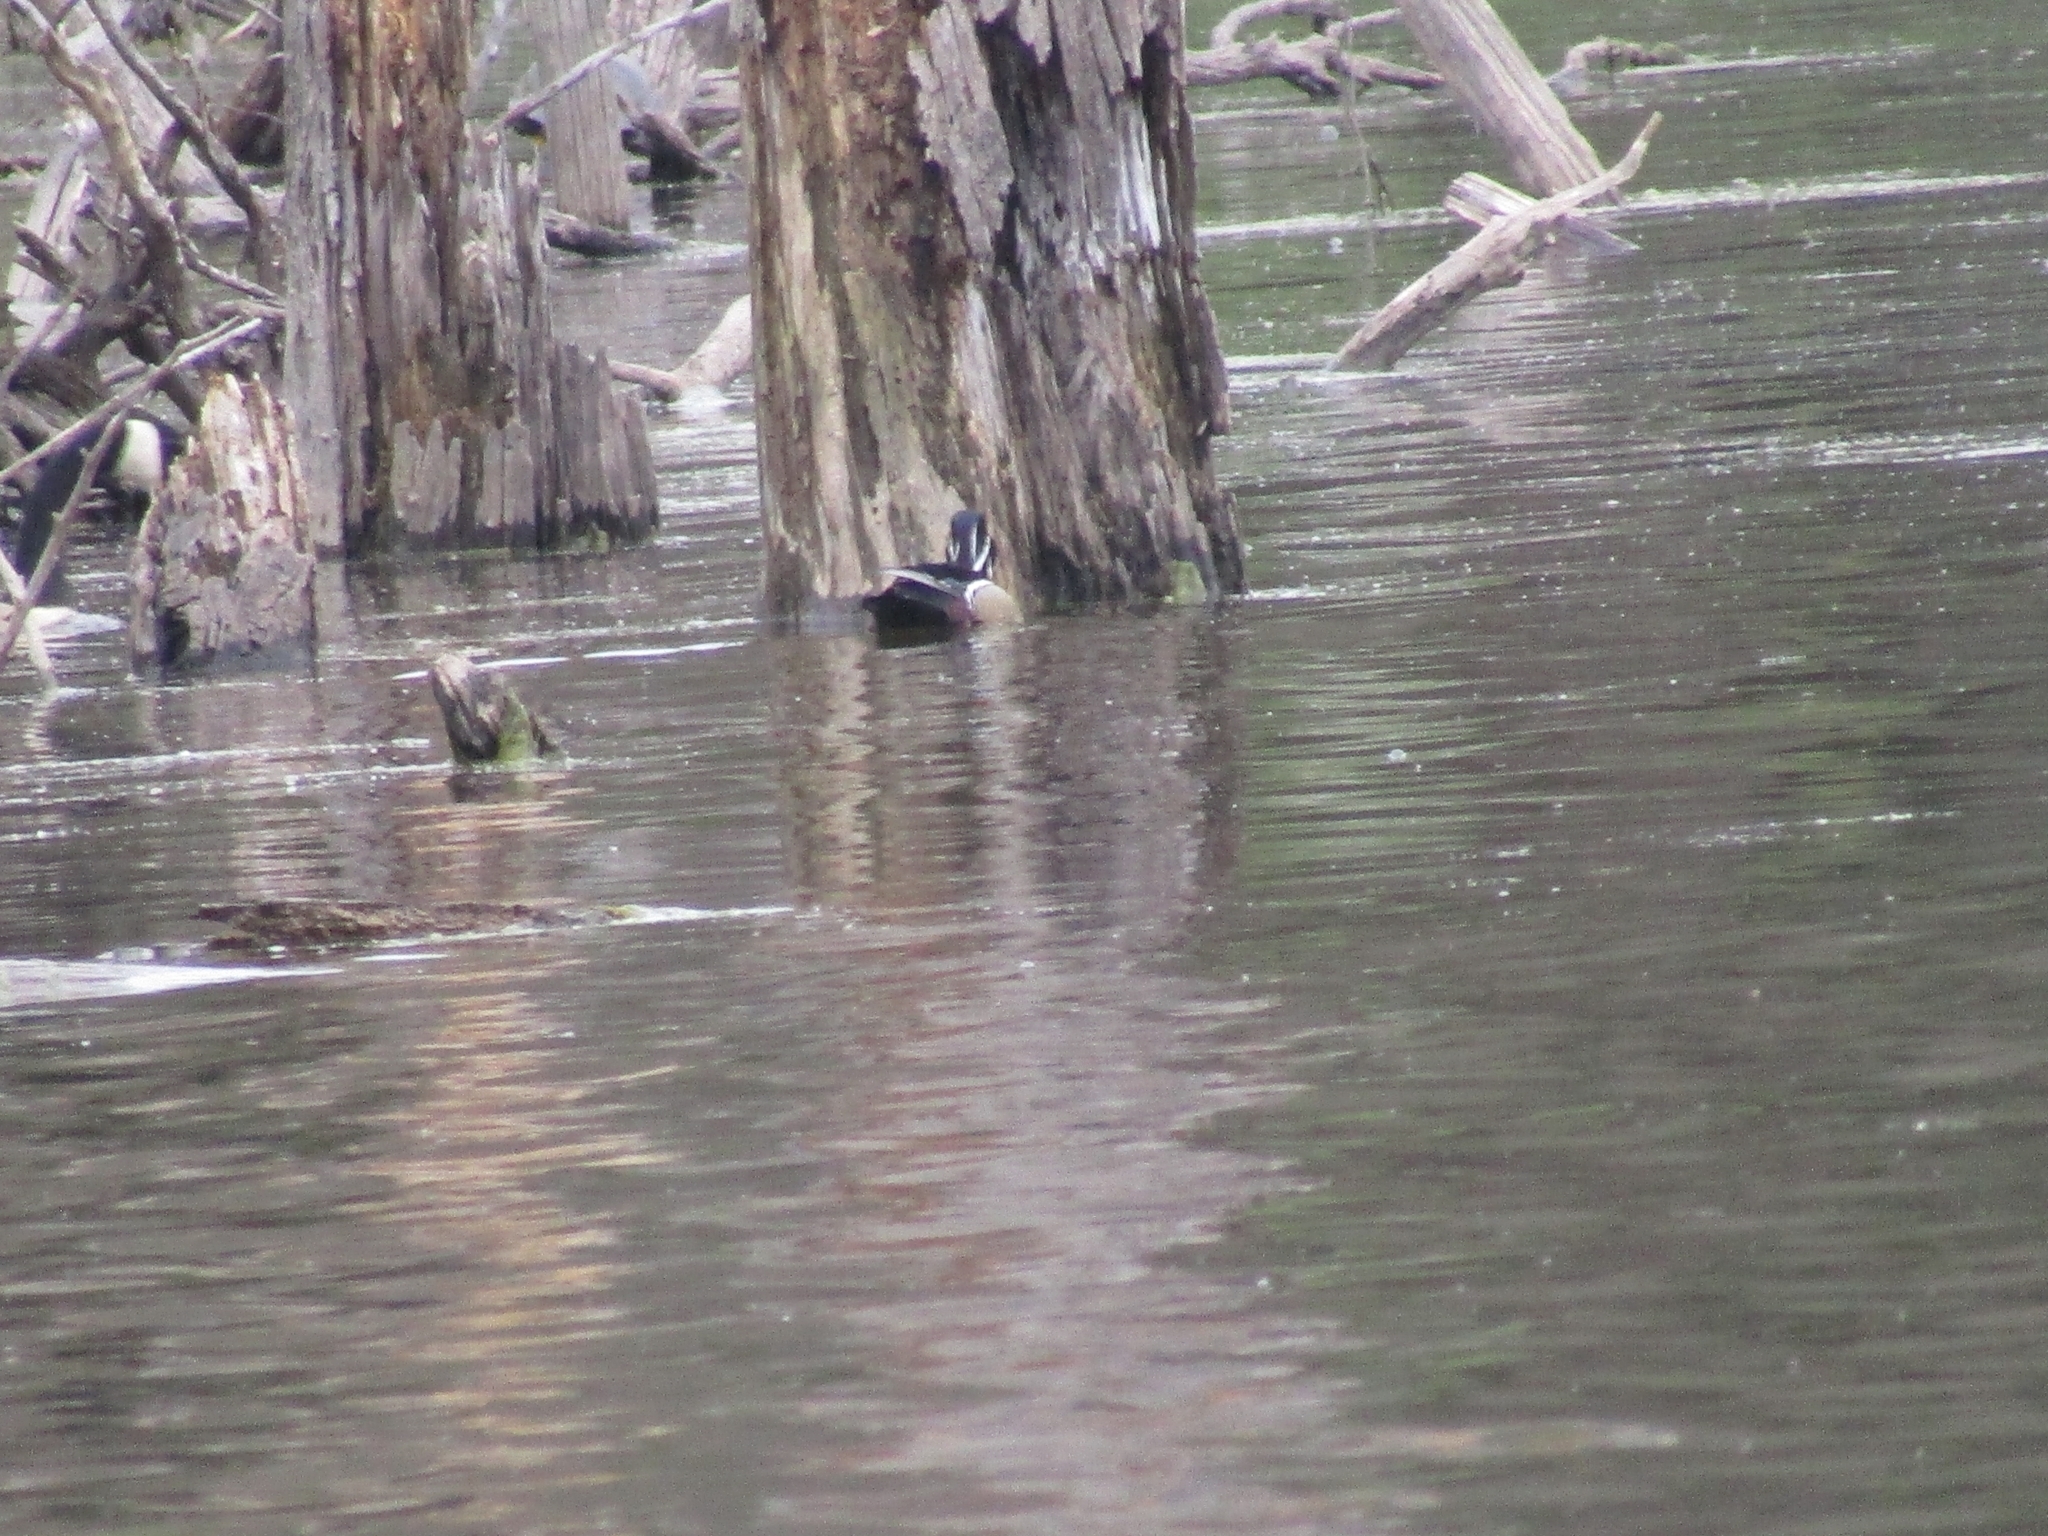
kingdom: Animalia
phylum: Chordata
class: Aves
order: Anseriformes
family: Anatidae
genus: Aix
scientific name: Aix sponsa
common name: Wood duck
